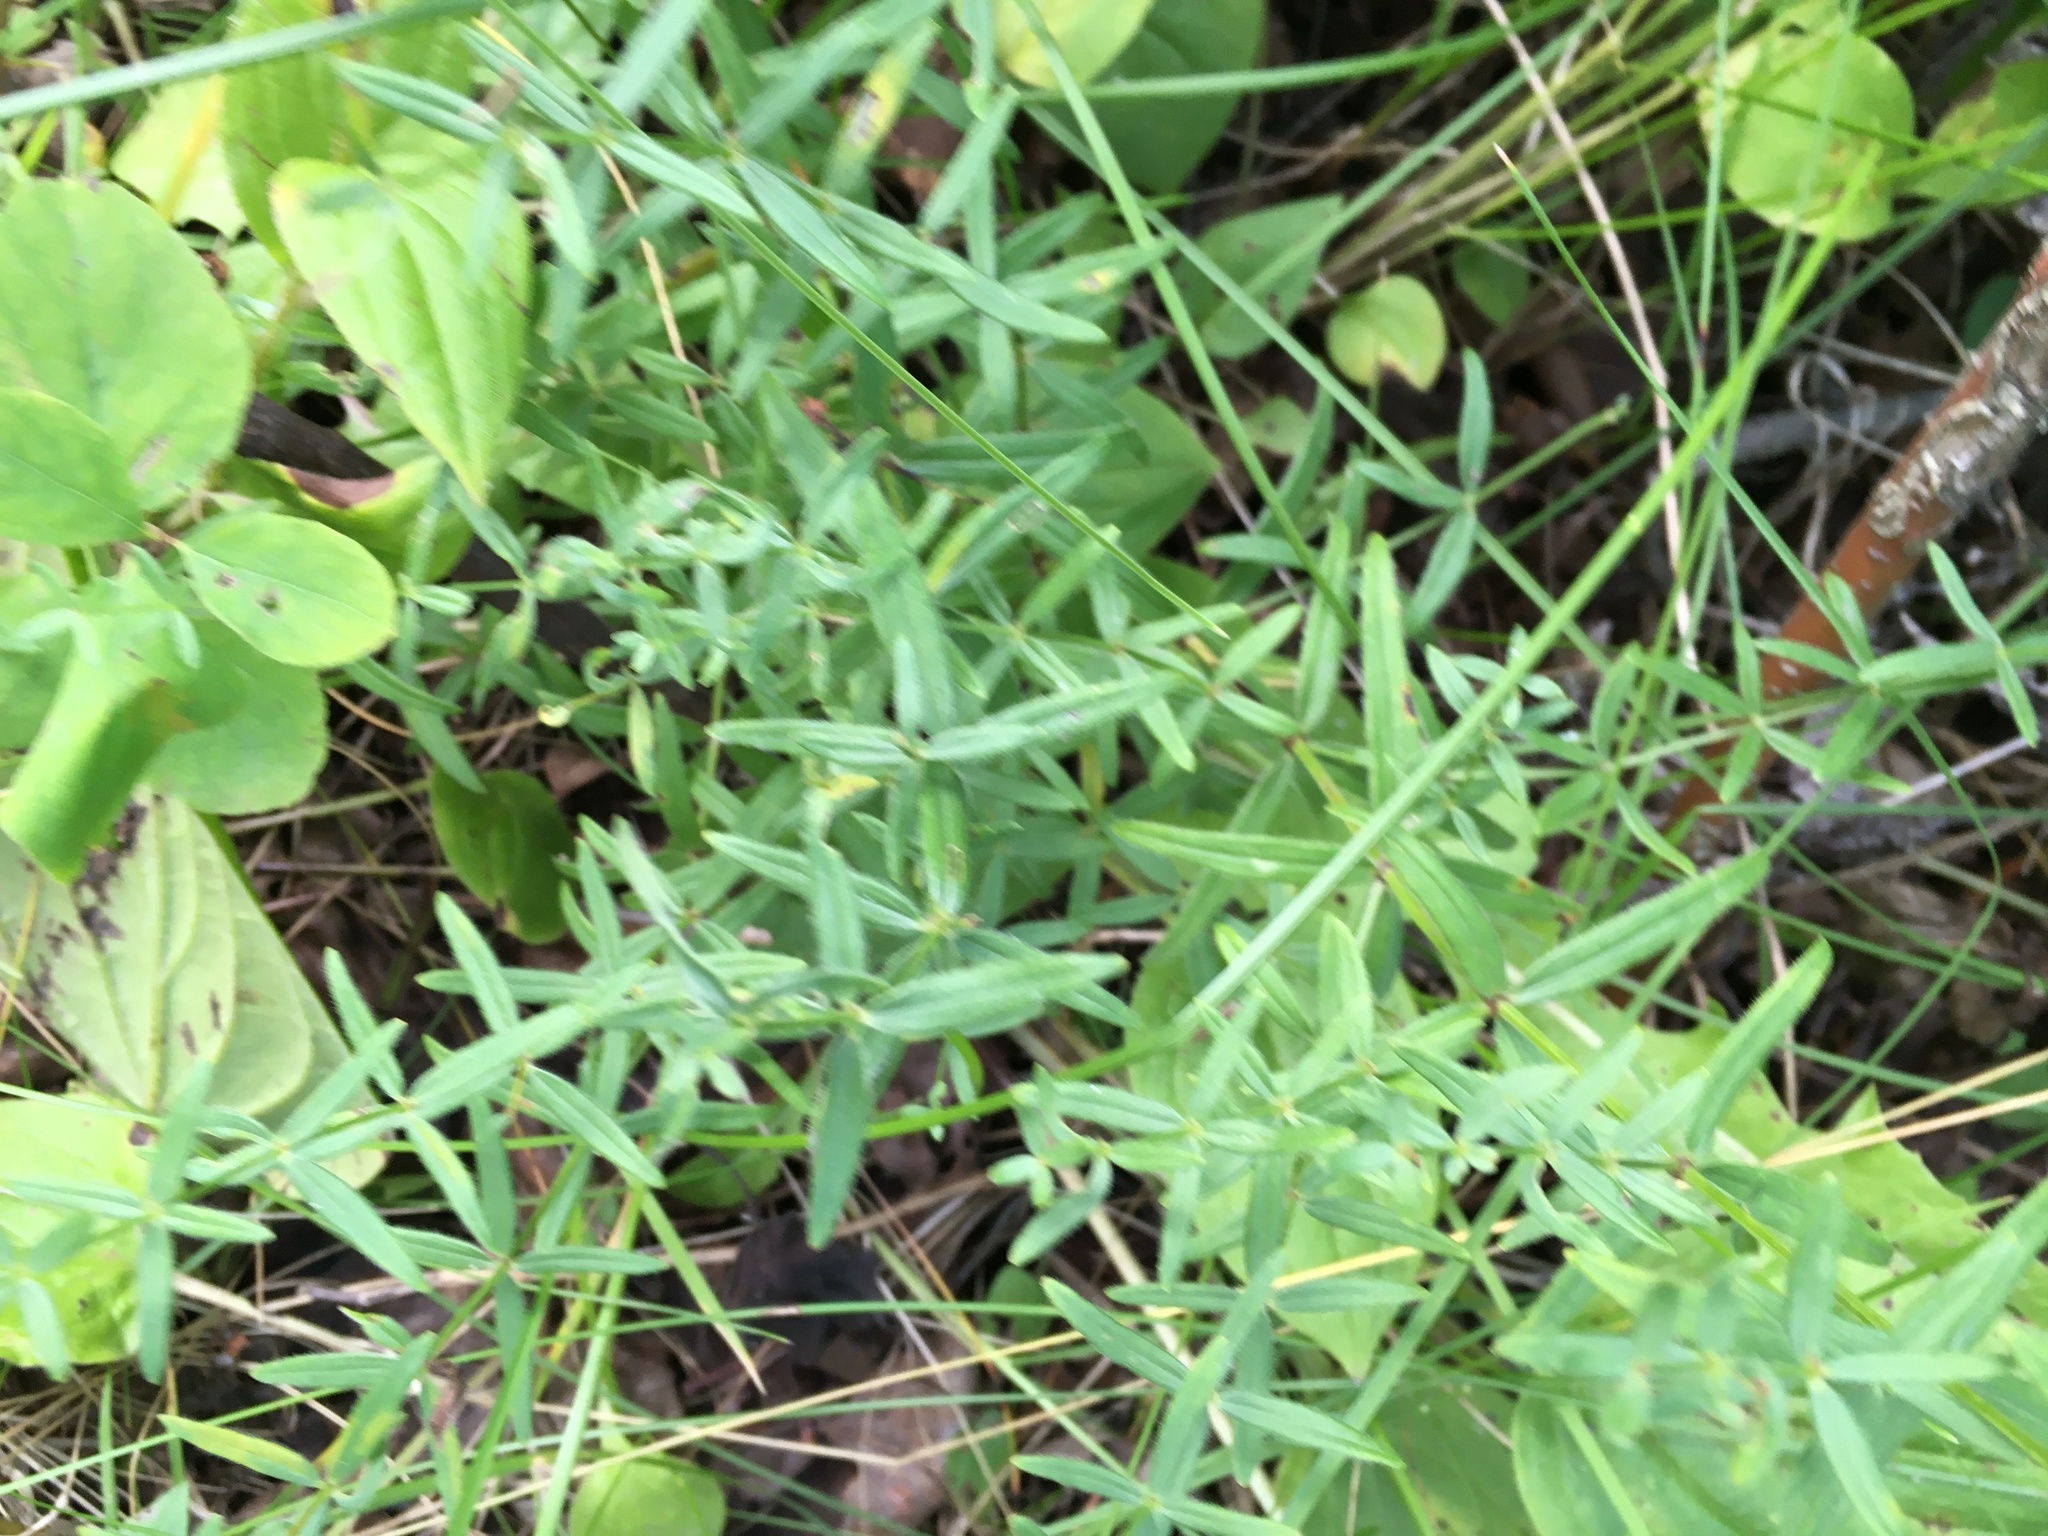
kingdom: Plantae
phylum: Tracheophyta
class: Magnoliopsida
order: Gentianales
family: Rubiaceae
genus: Galium
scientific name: Galium boreale
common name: Northern bedstraw
